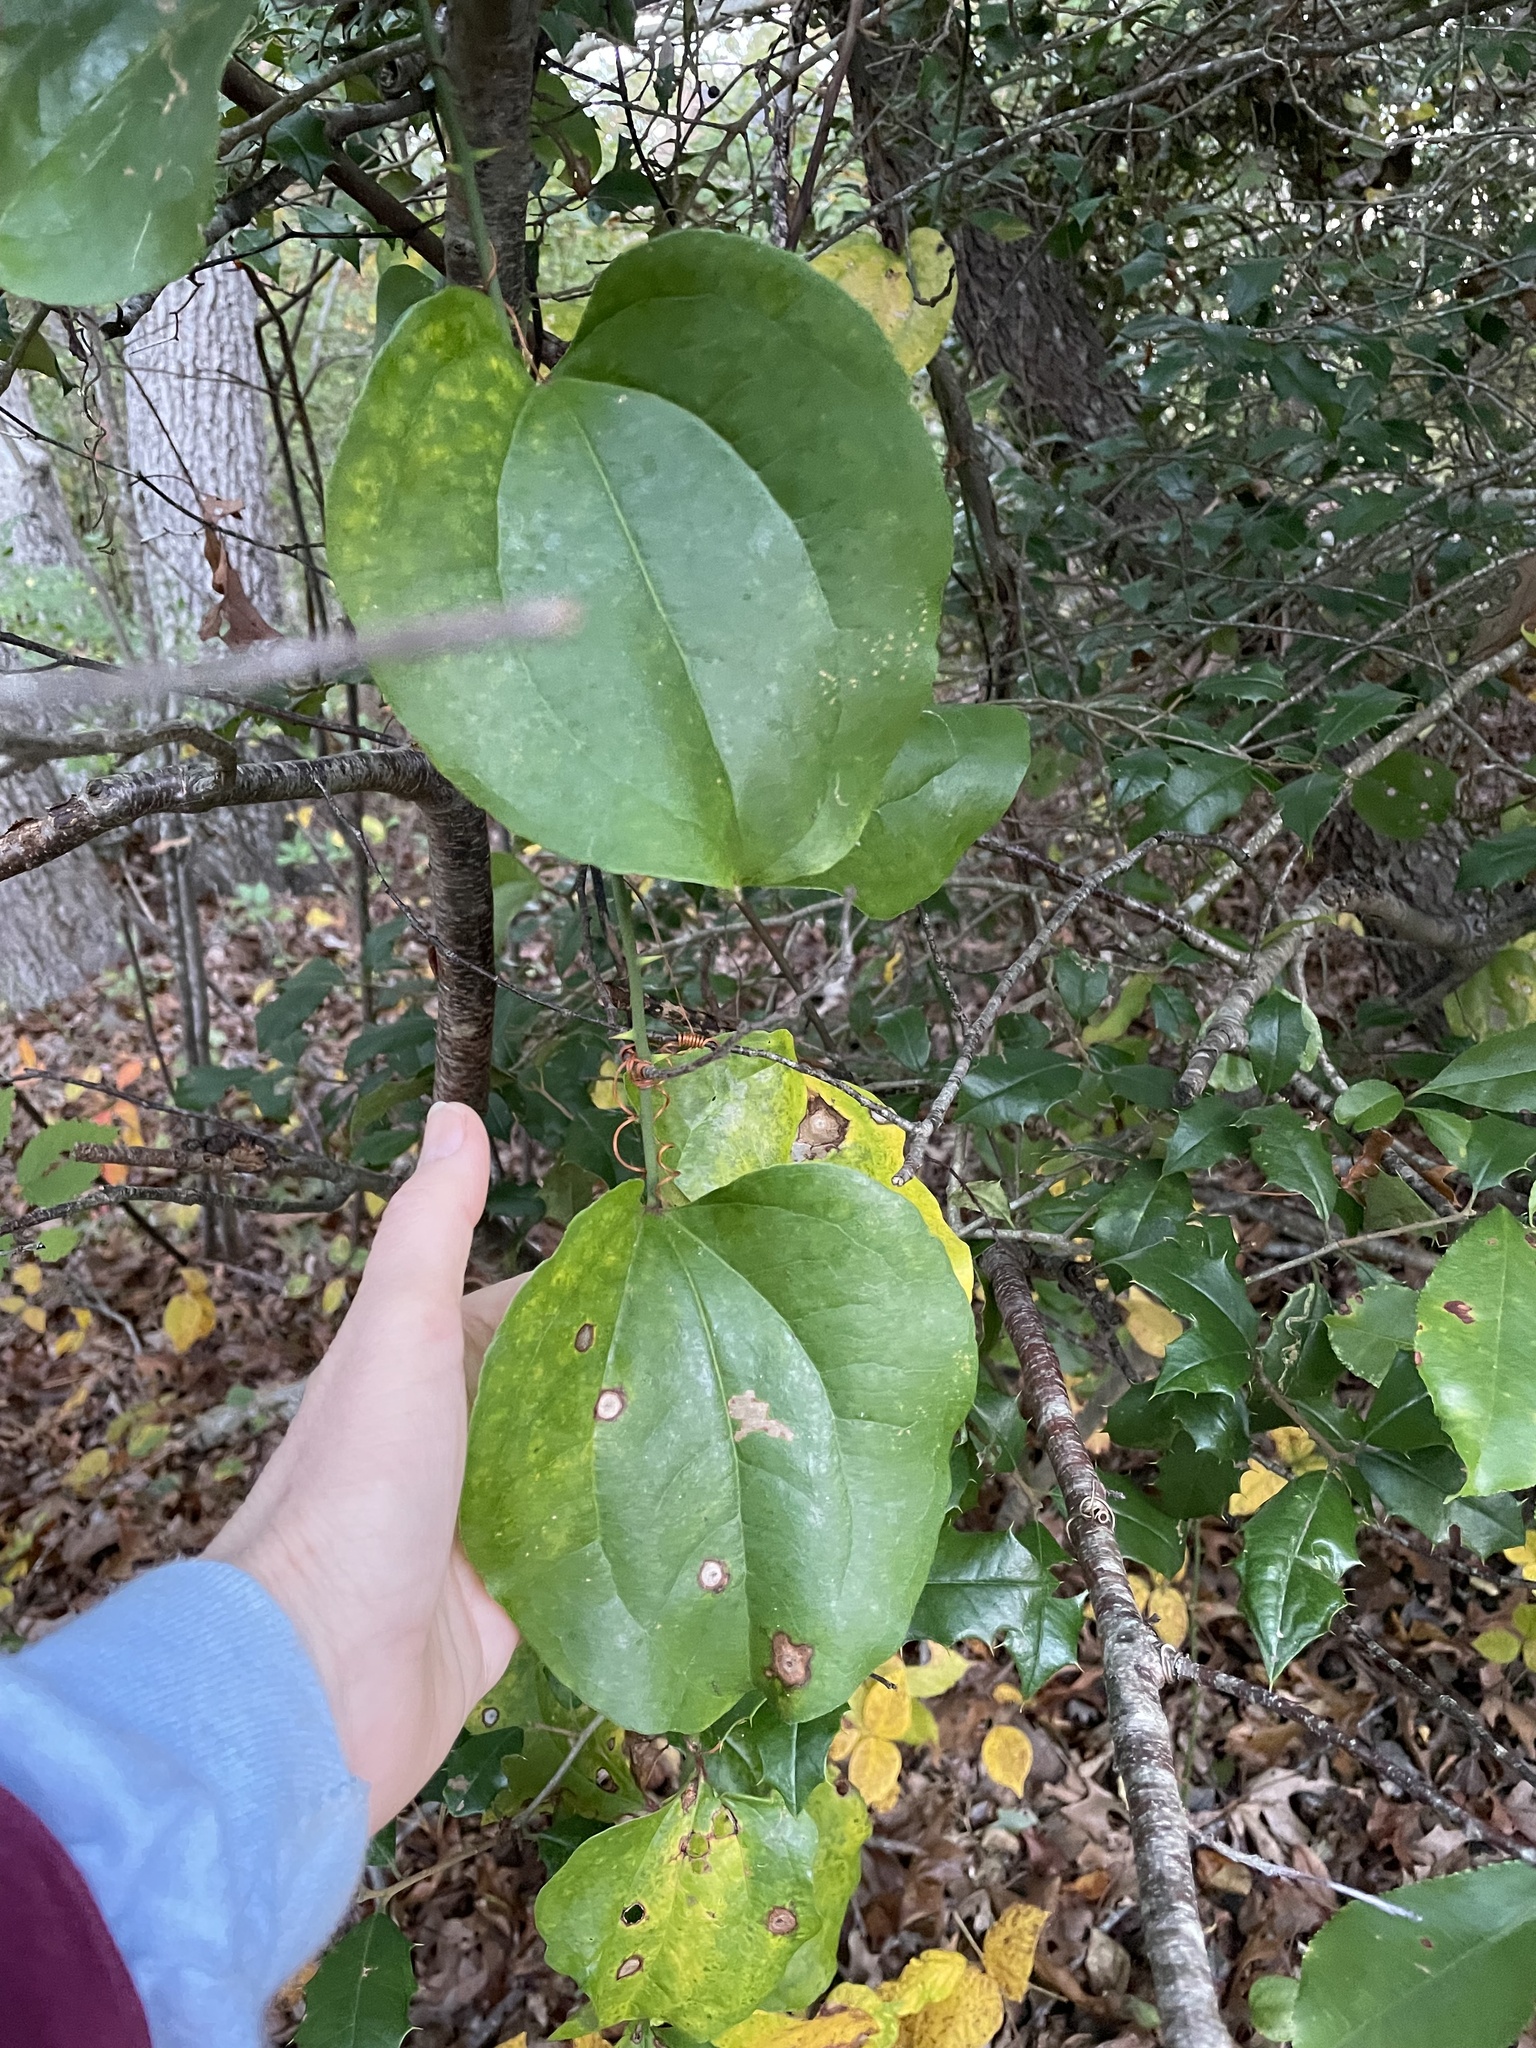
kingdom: Plantae
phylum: Tracheophyta
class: Liliopsida
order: Liliales
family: Smilacaceae
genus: Smilax
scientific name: Smilax rotundifolia
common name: Bullbriar
